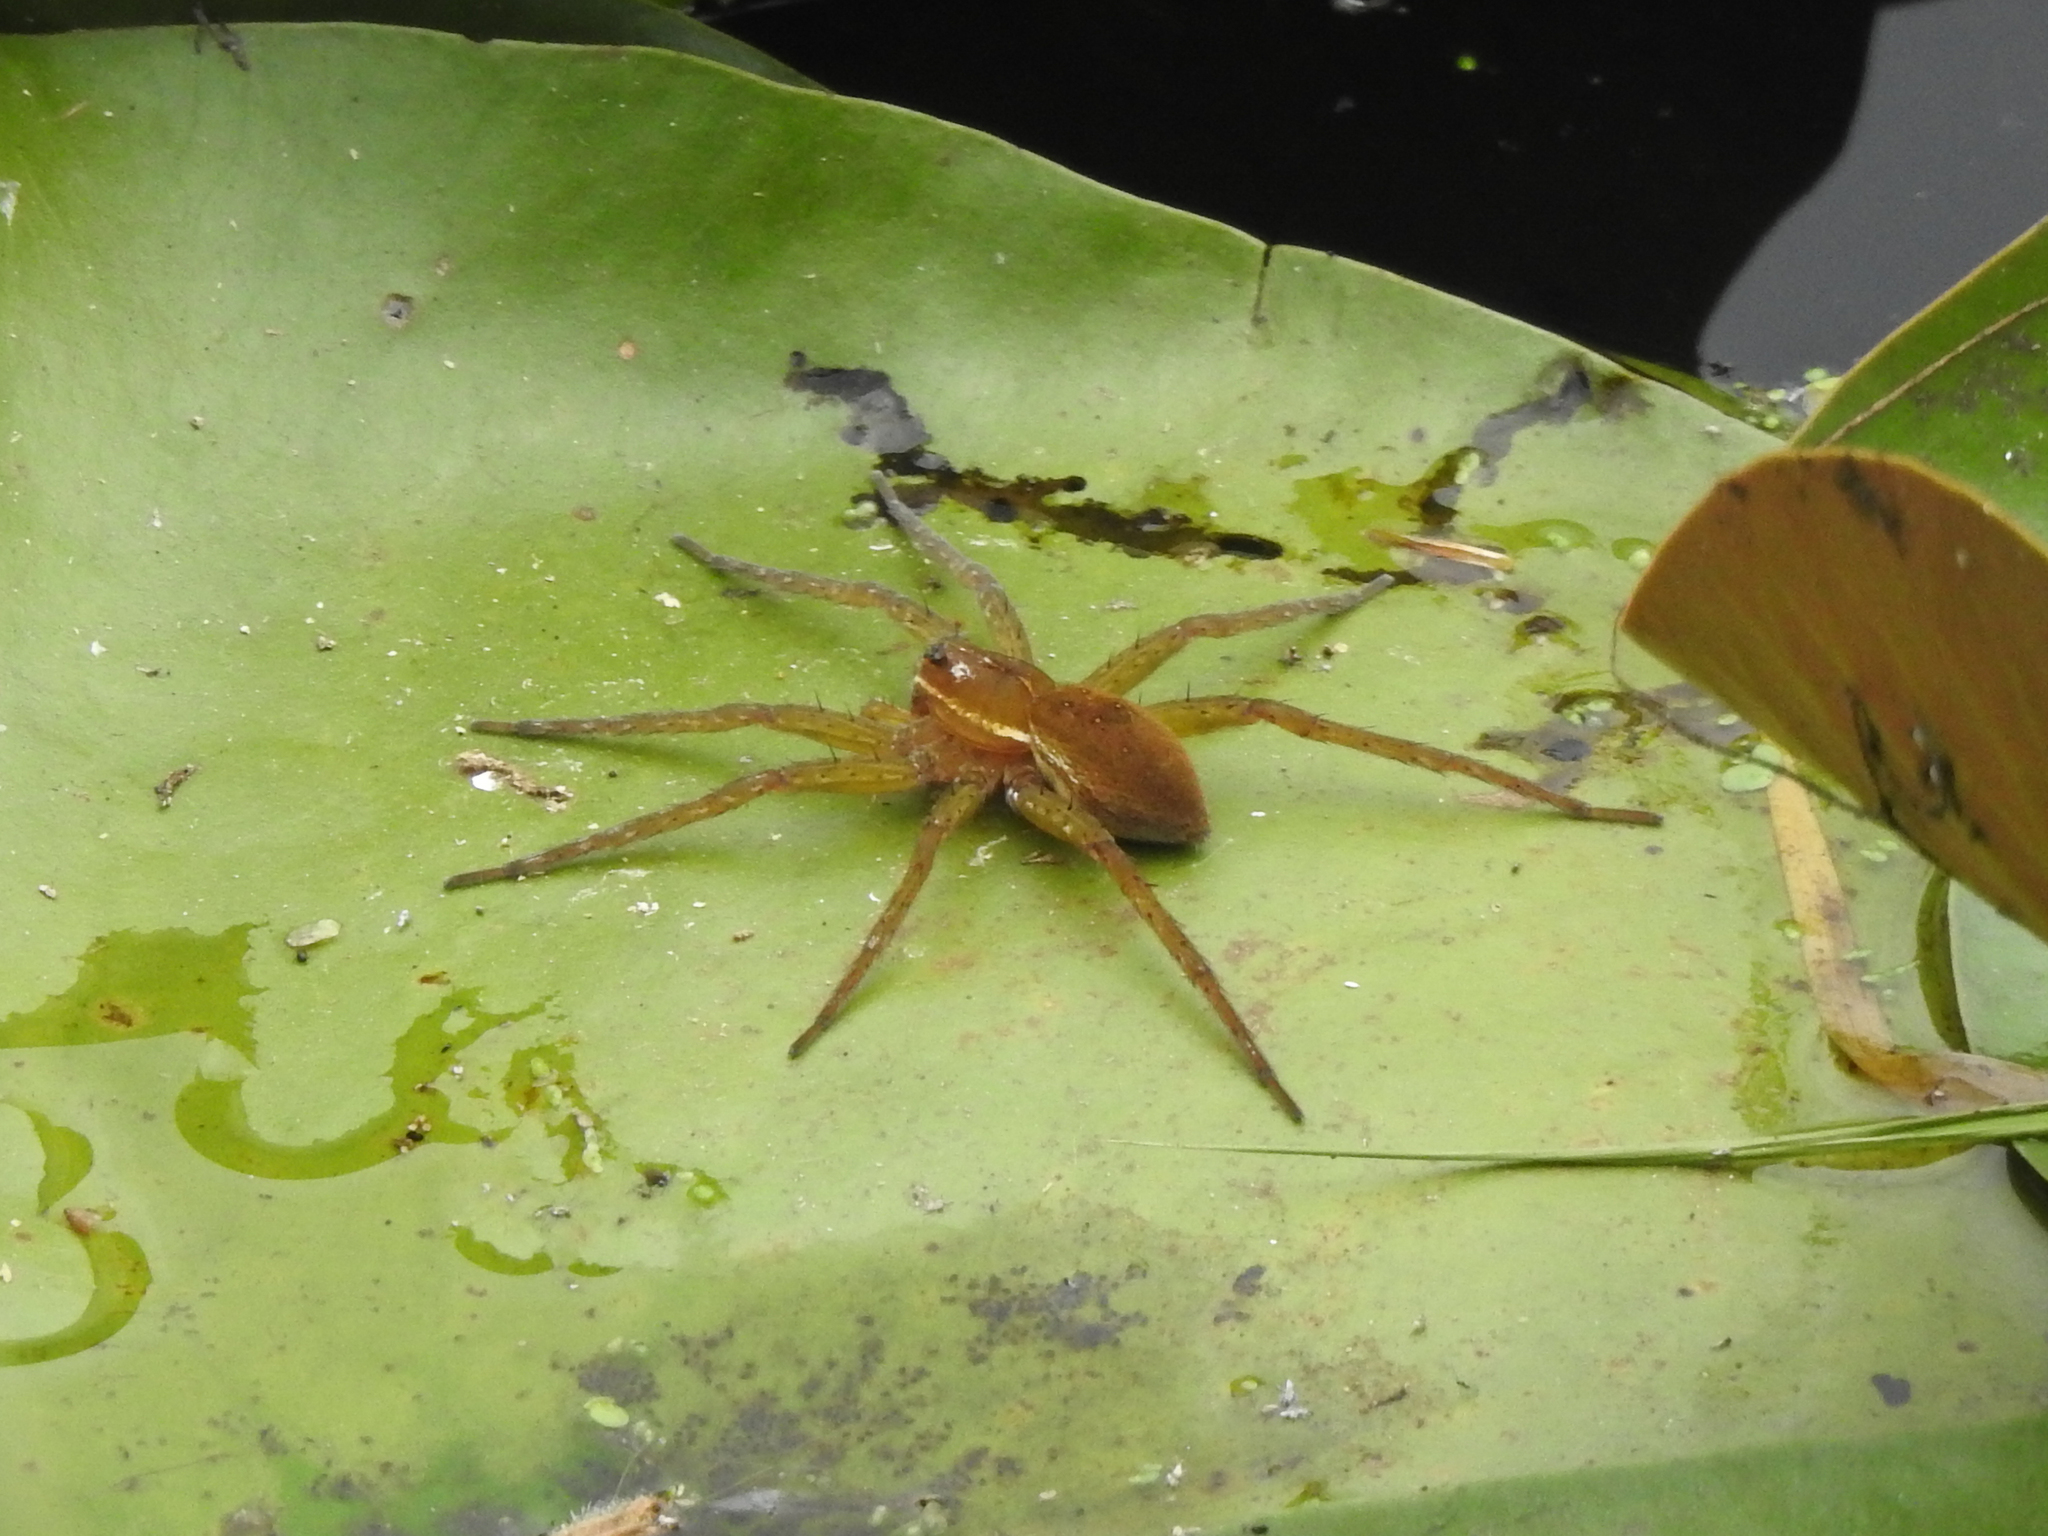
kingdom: Animalia
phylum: Arthropoda
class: Arachnida
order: Araneae
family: Pisauridae
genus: Dolomedes
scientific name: Dolomedes triton
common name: Six-spotted fishing spider
